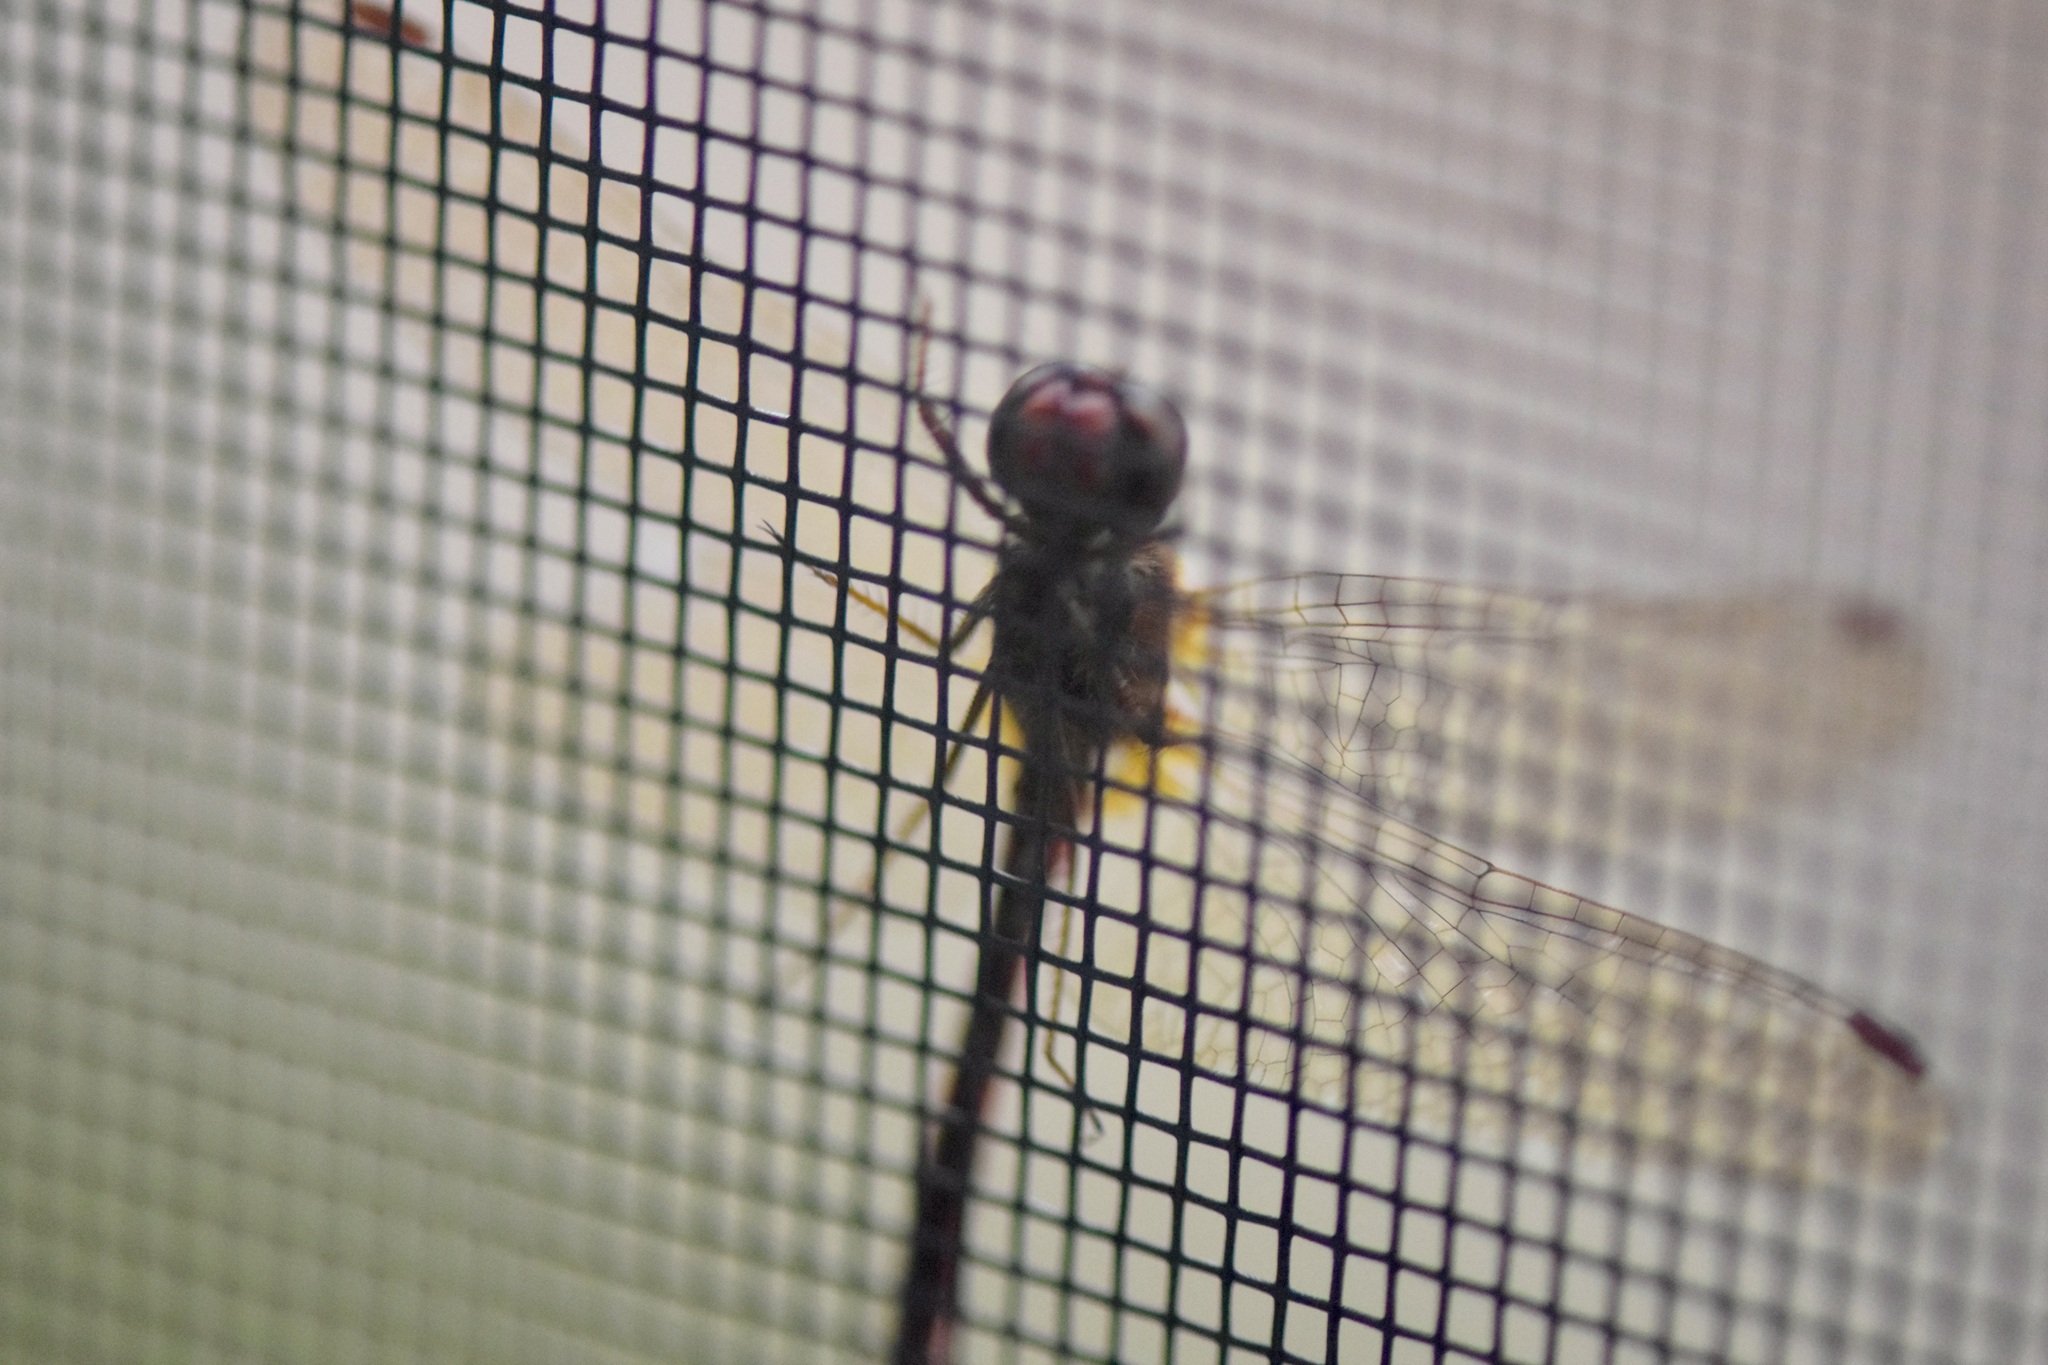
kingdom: Animalia
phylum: Arthropoda
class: Insecta
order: Odonata
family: Libellulidae
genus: Sympetrum
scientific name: Sympetrum vicinum
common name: Autumn meadowhawk
